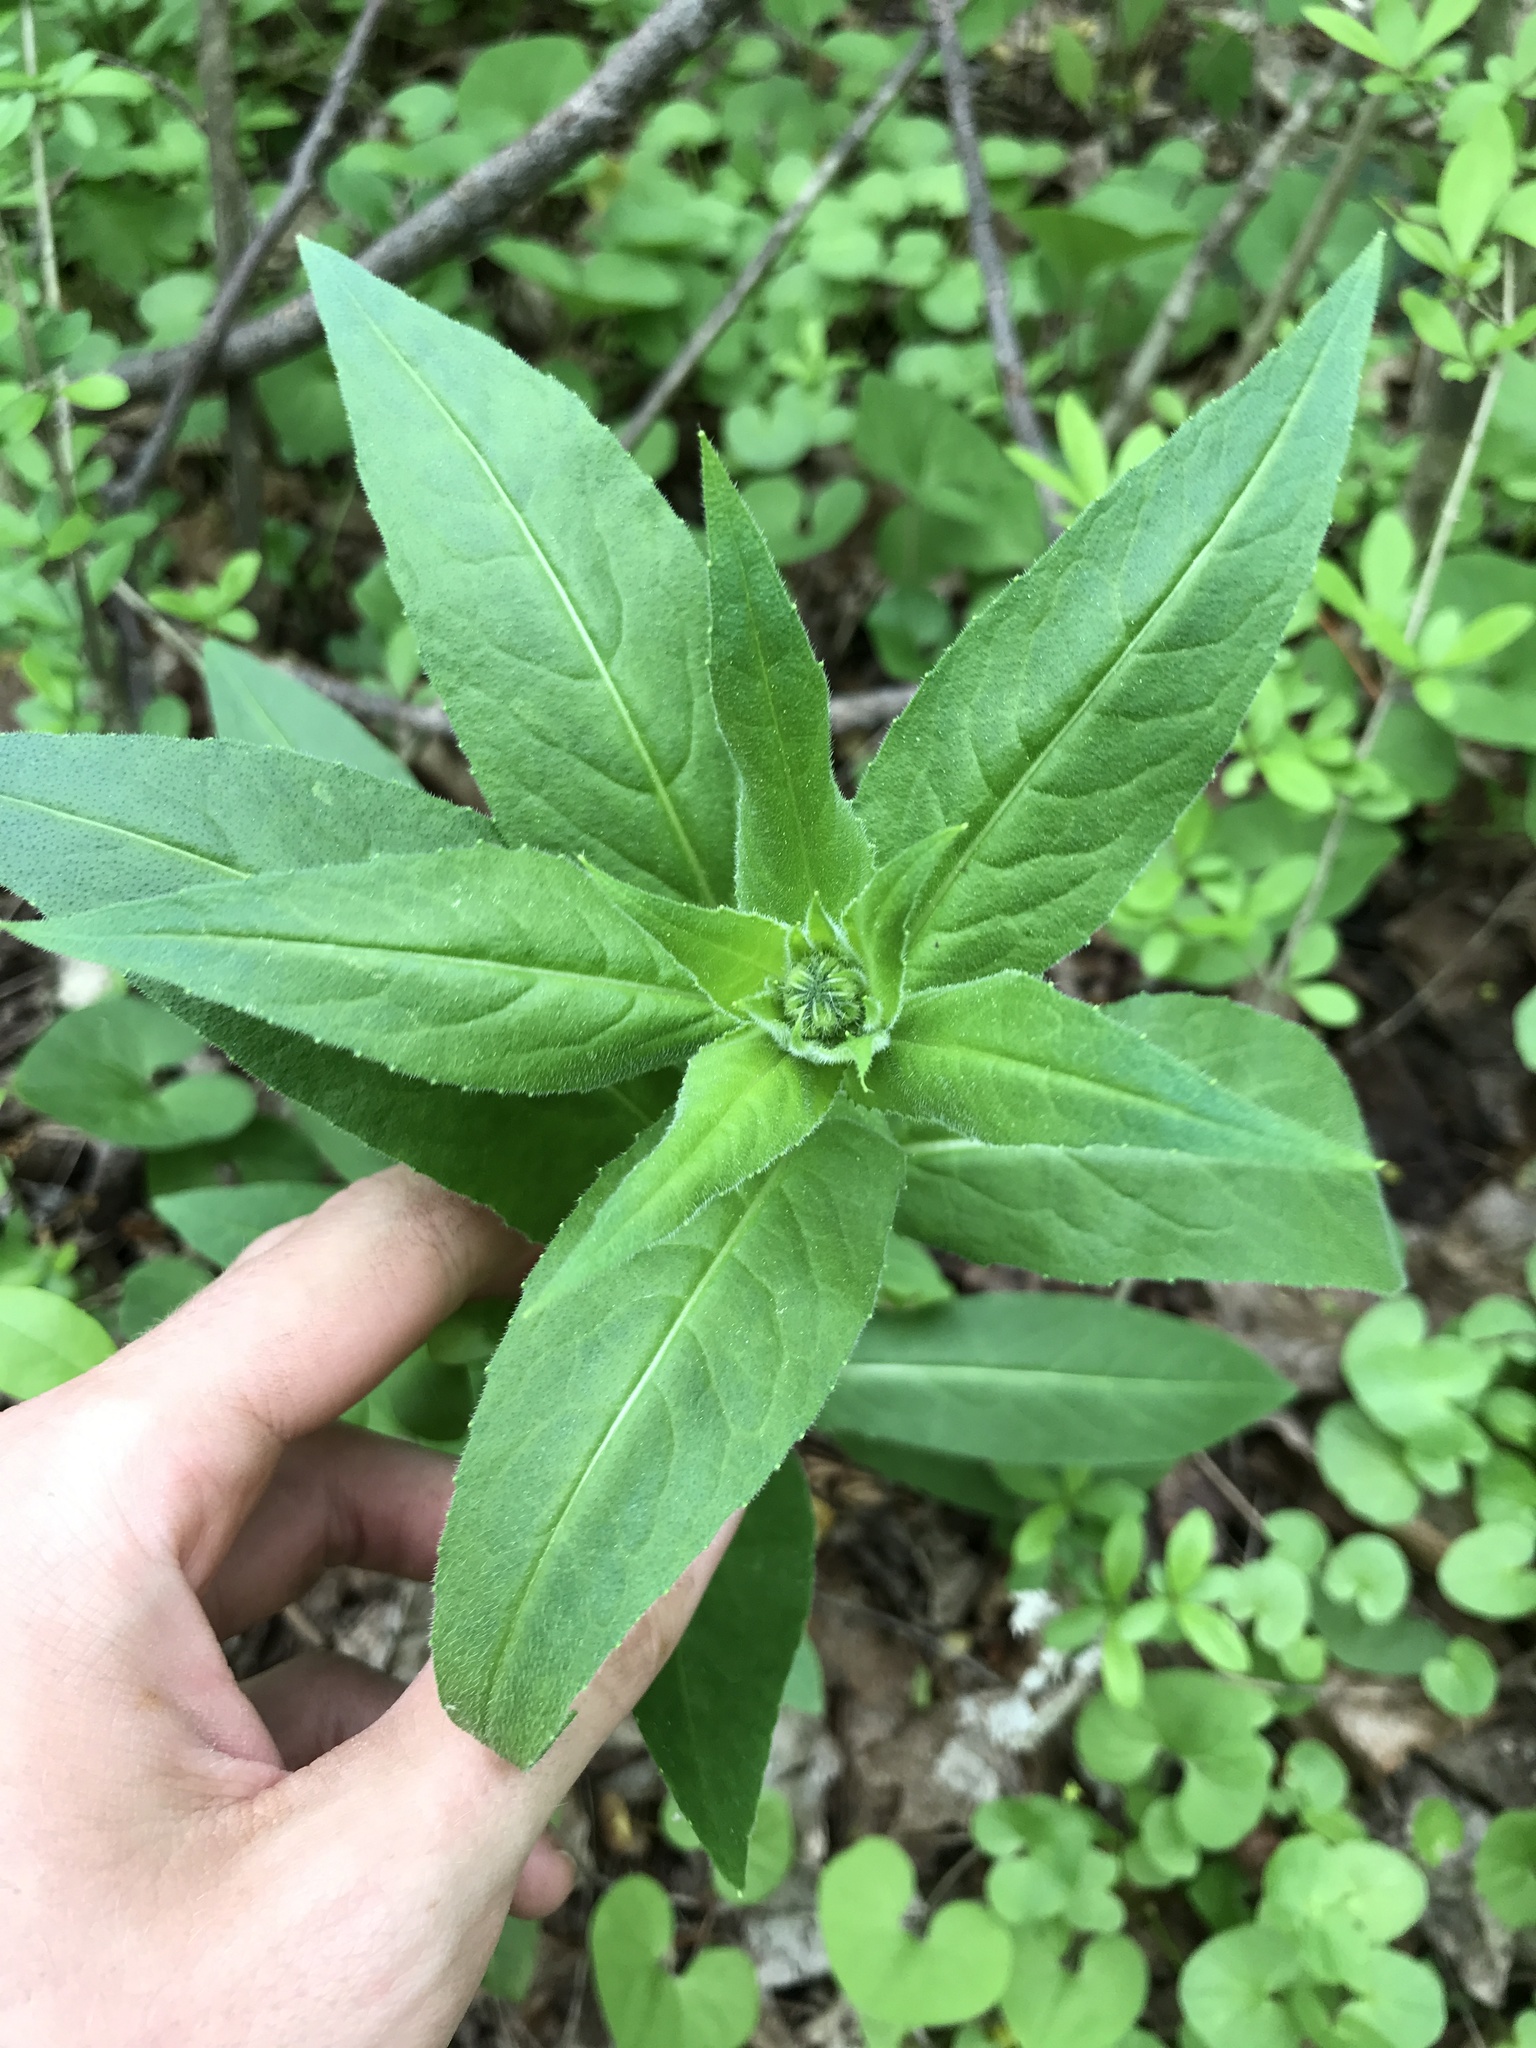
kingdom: Plantae
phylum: Tracheophyta
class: Magnoliopsida
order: Brassicales
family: Brassicaceae
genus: Hesperis
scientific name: Hesperis matronalis
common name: Dame's-violet
